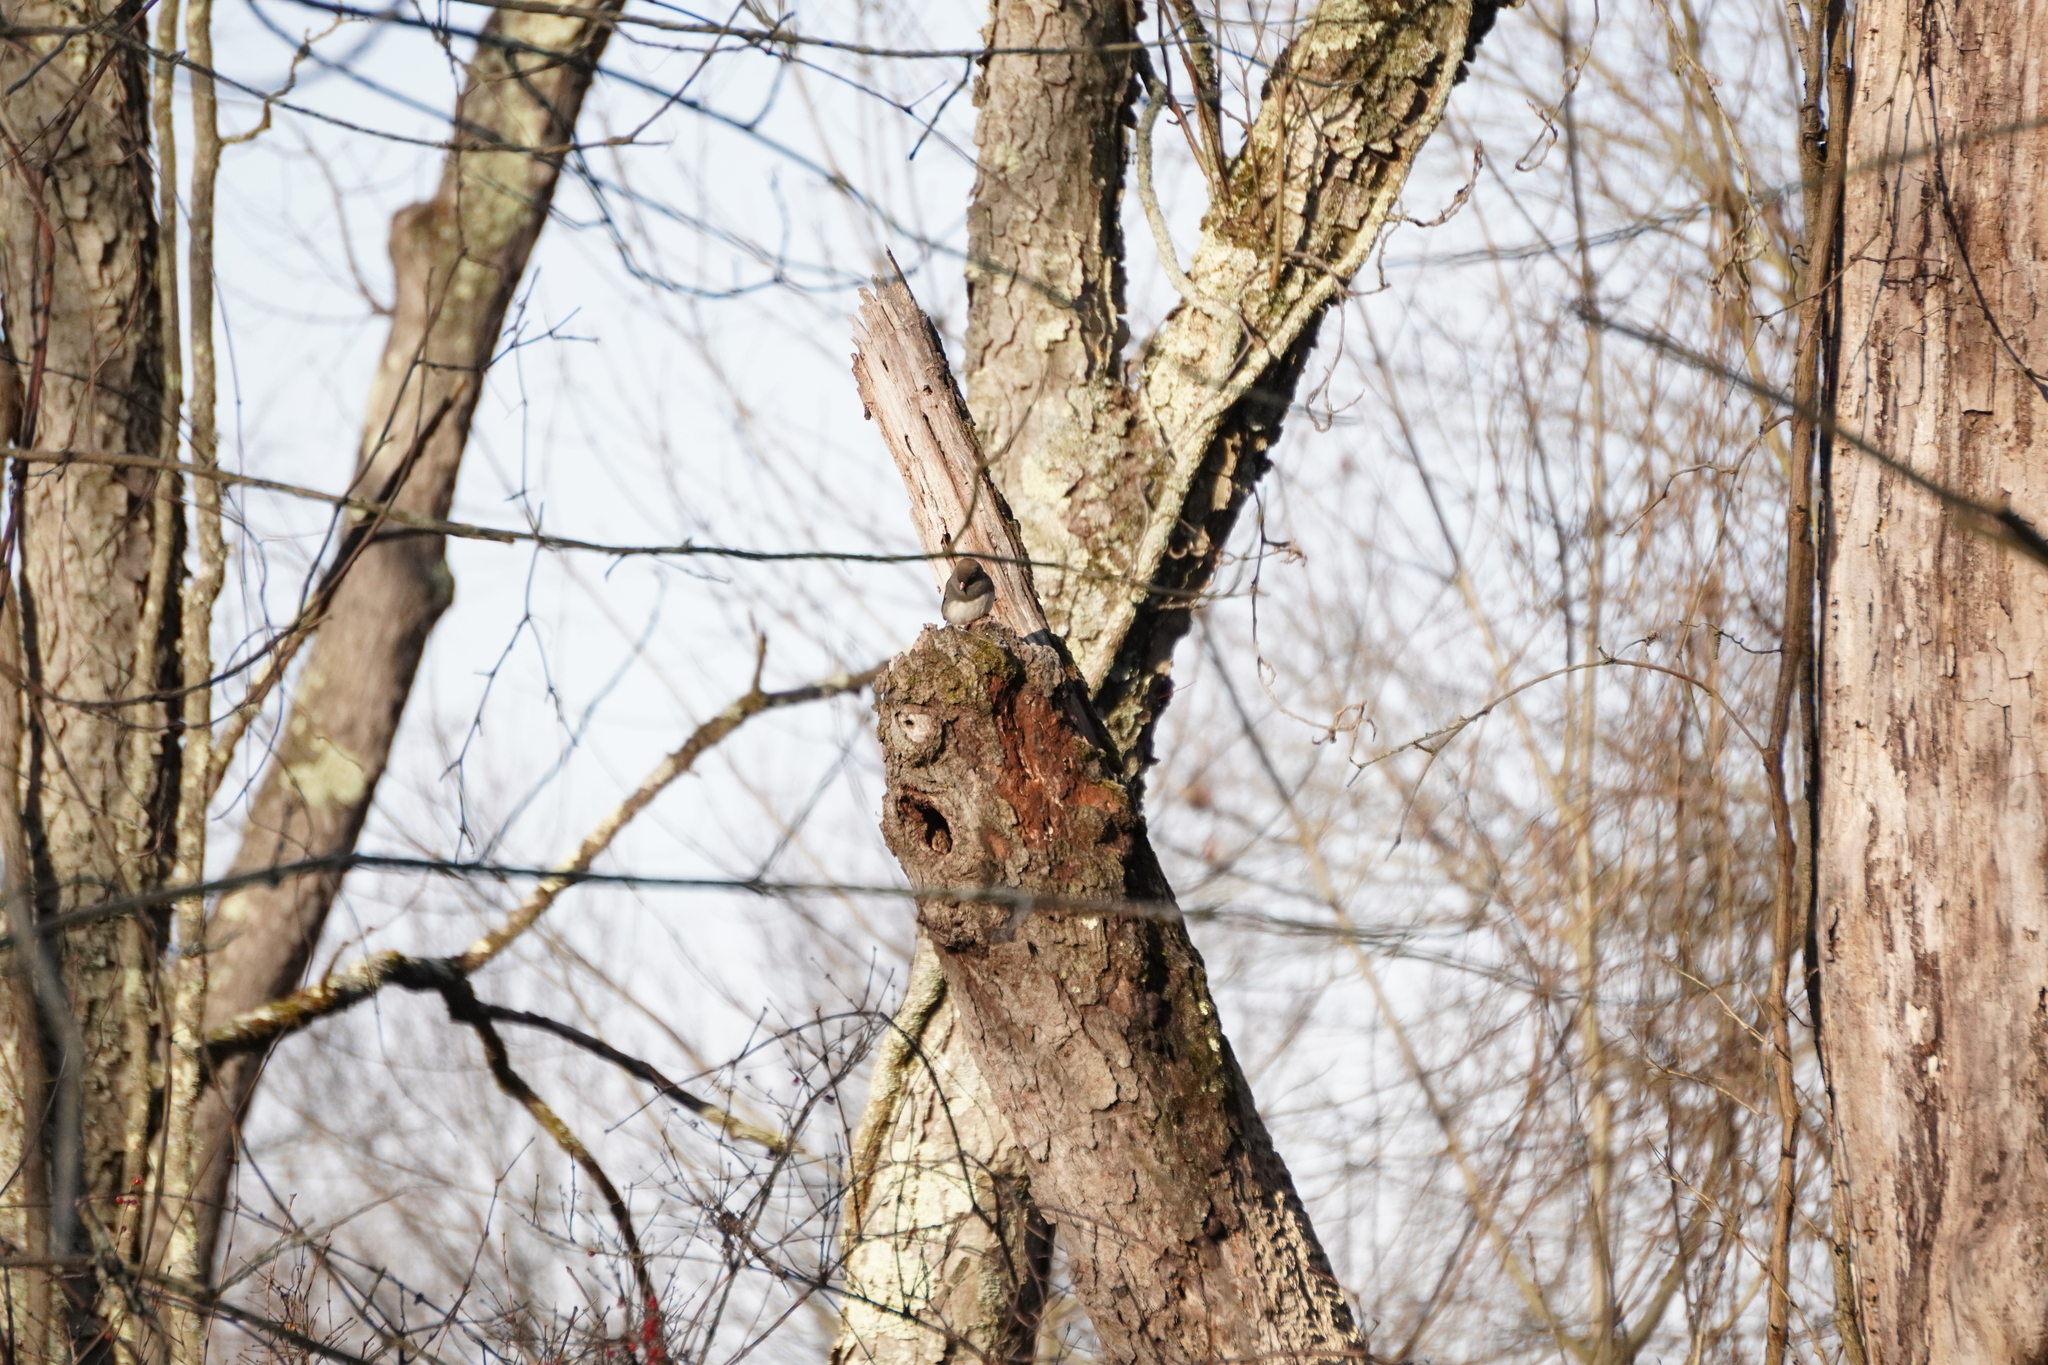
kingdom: Animalia
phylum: Chordata
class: Aves
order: Passeriformes
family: Passerellidae
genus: Junco
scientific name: Junco hyemalis
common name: Dark-eyed junco
